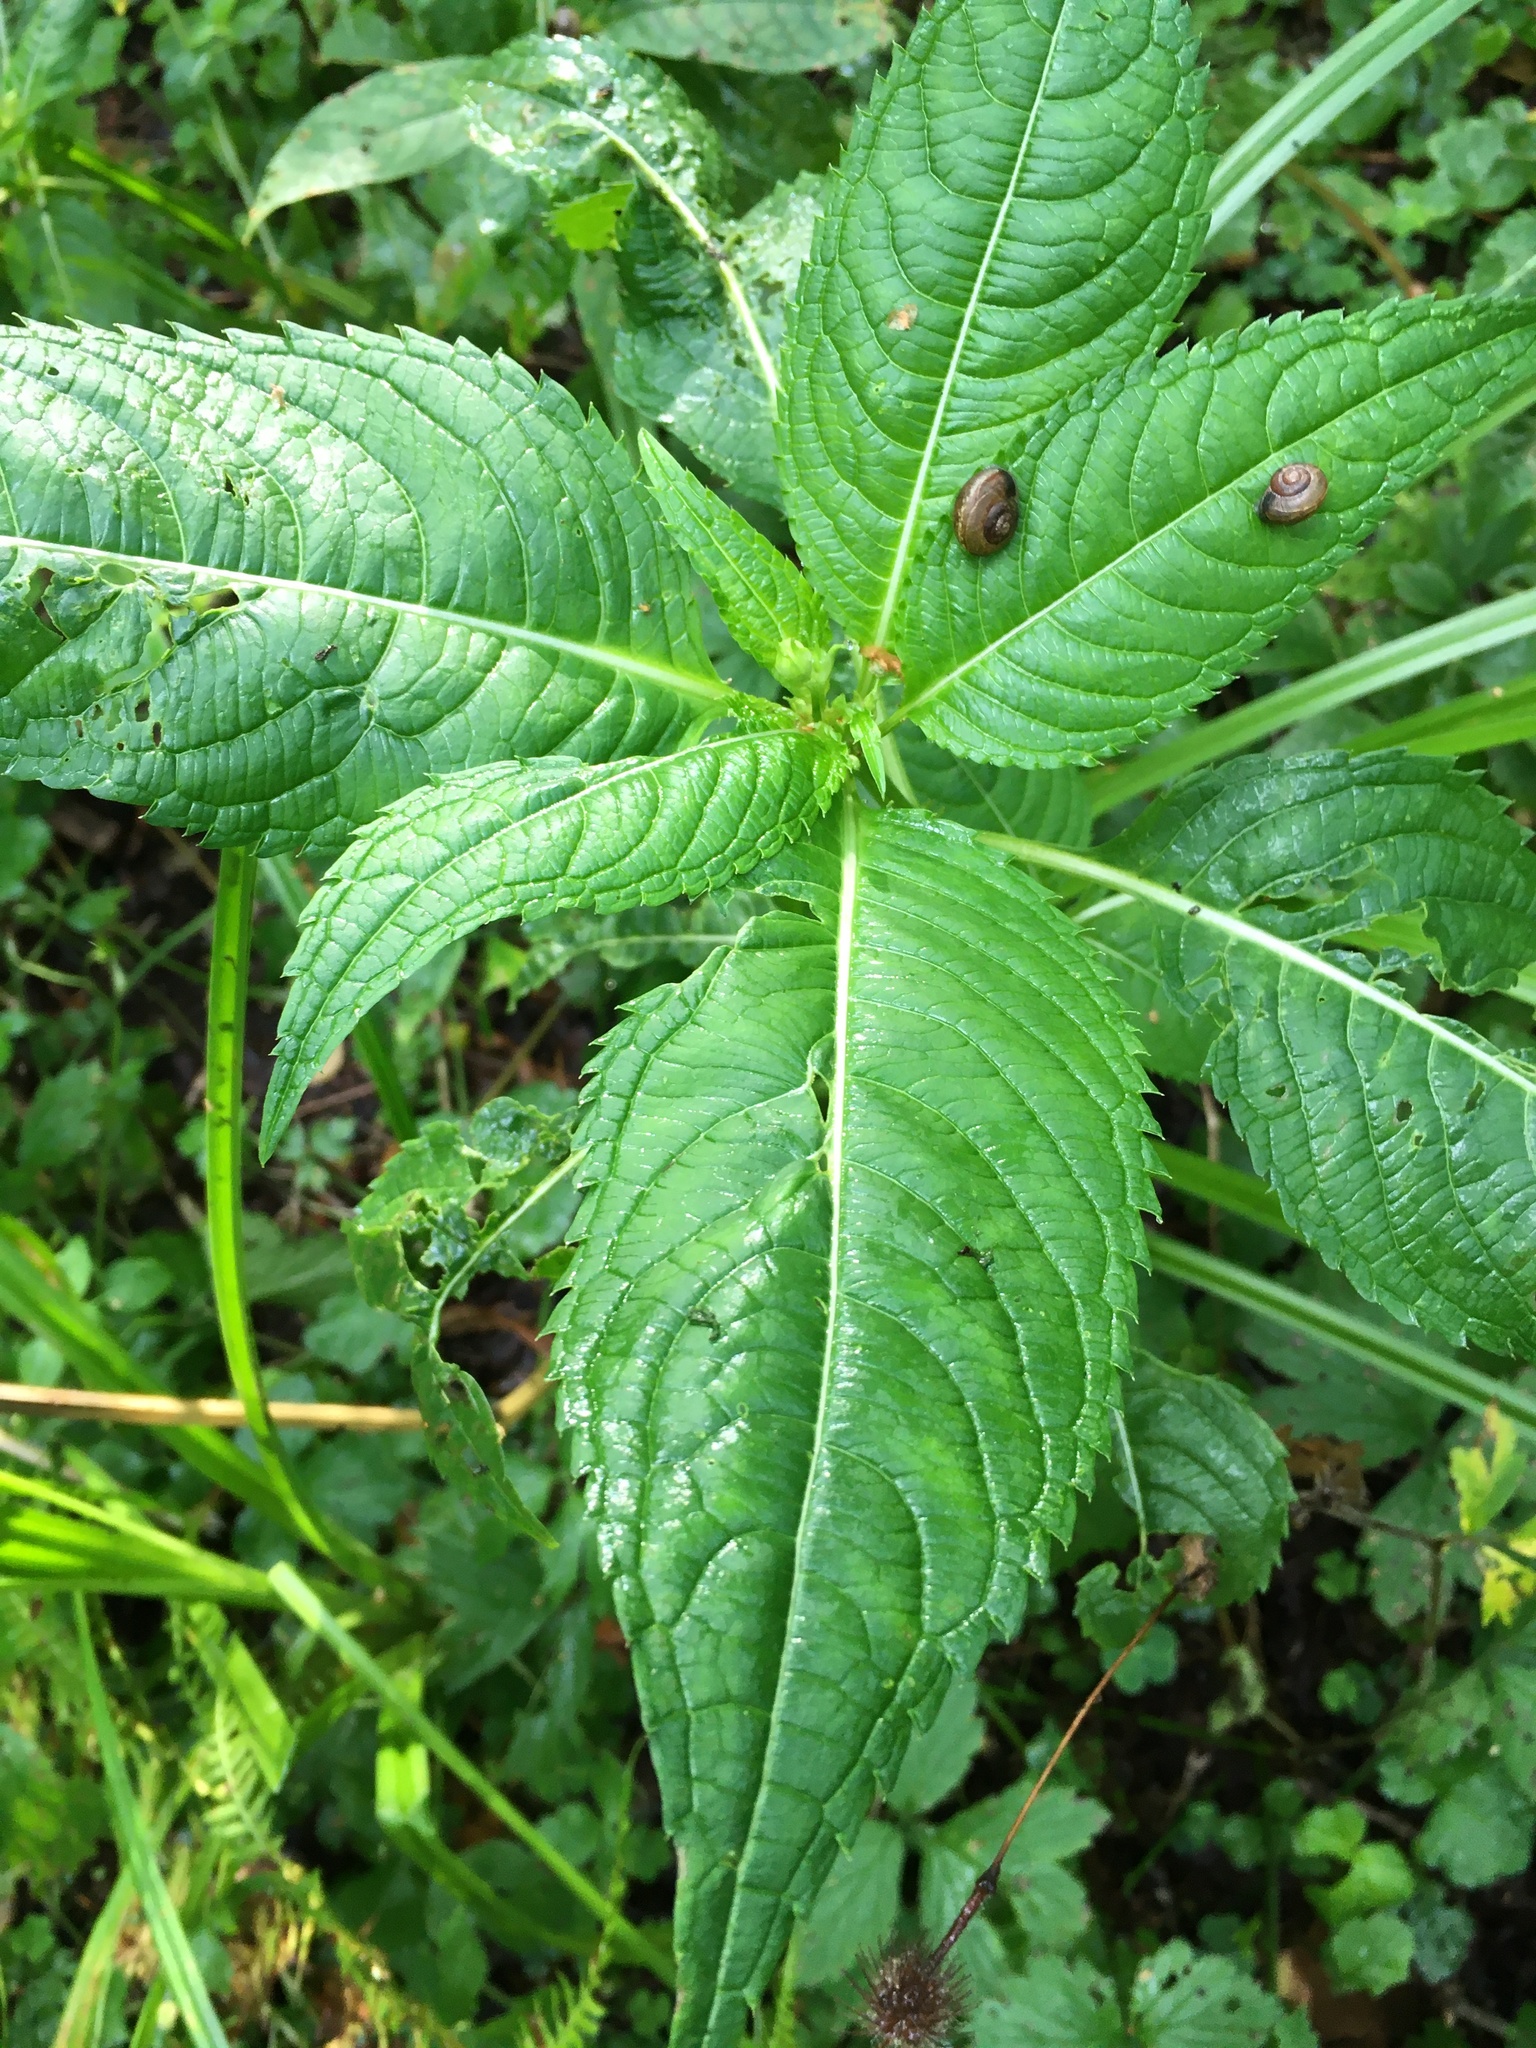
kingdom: Plantae
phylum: Tracheophyta
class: Magnoliopsida
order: Ericales
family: Balsaminaceae
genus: Impatiens
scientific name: Impatiens glandulifera
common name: Himalayan balsam
